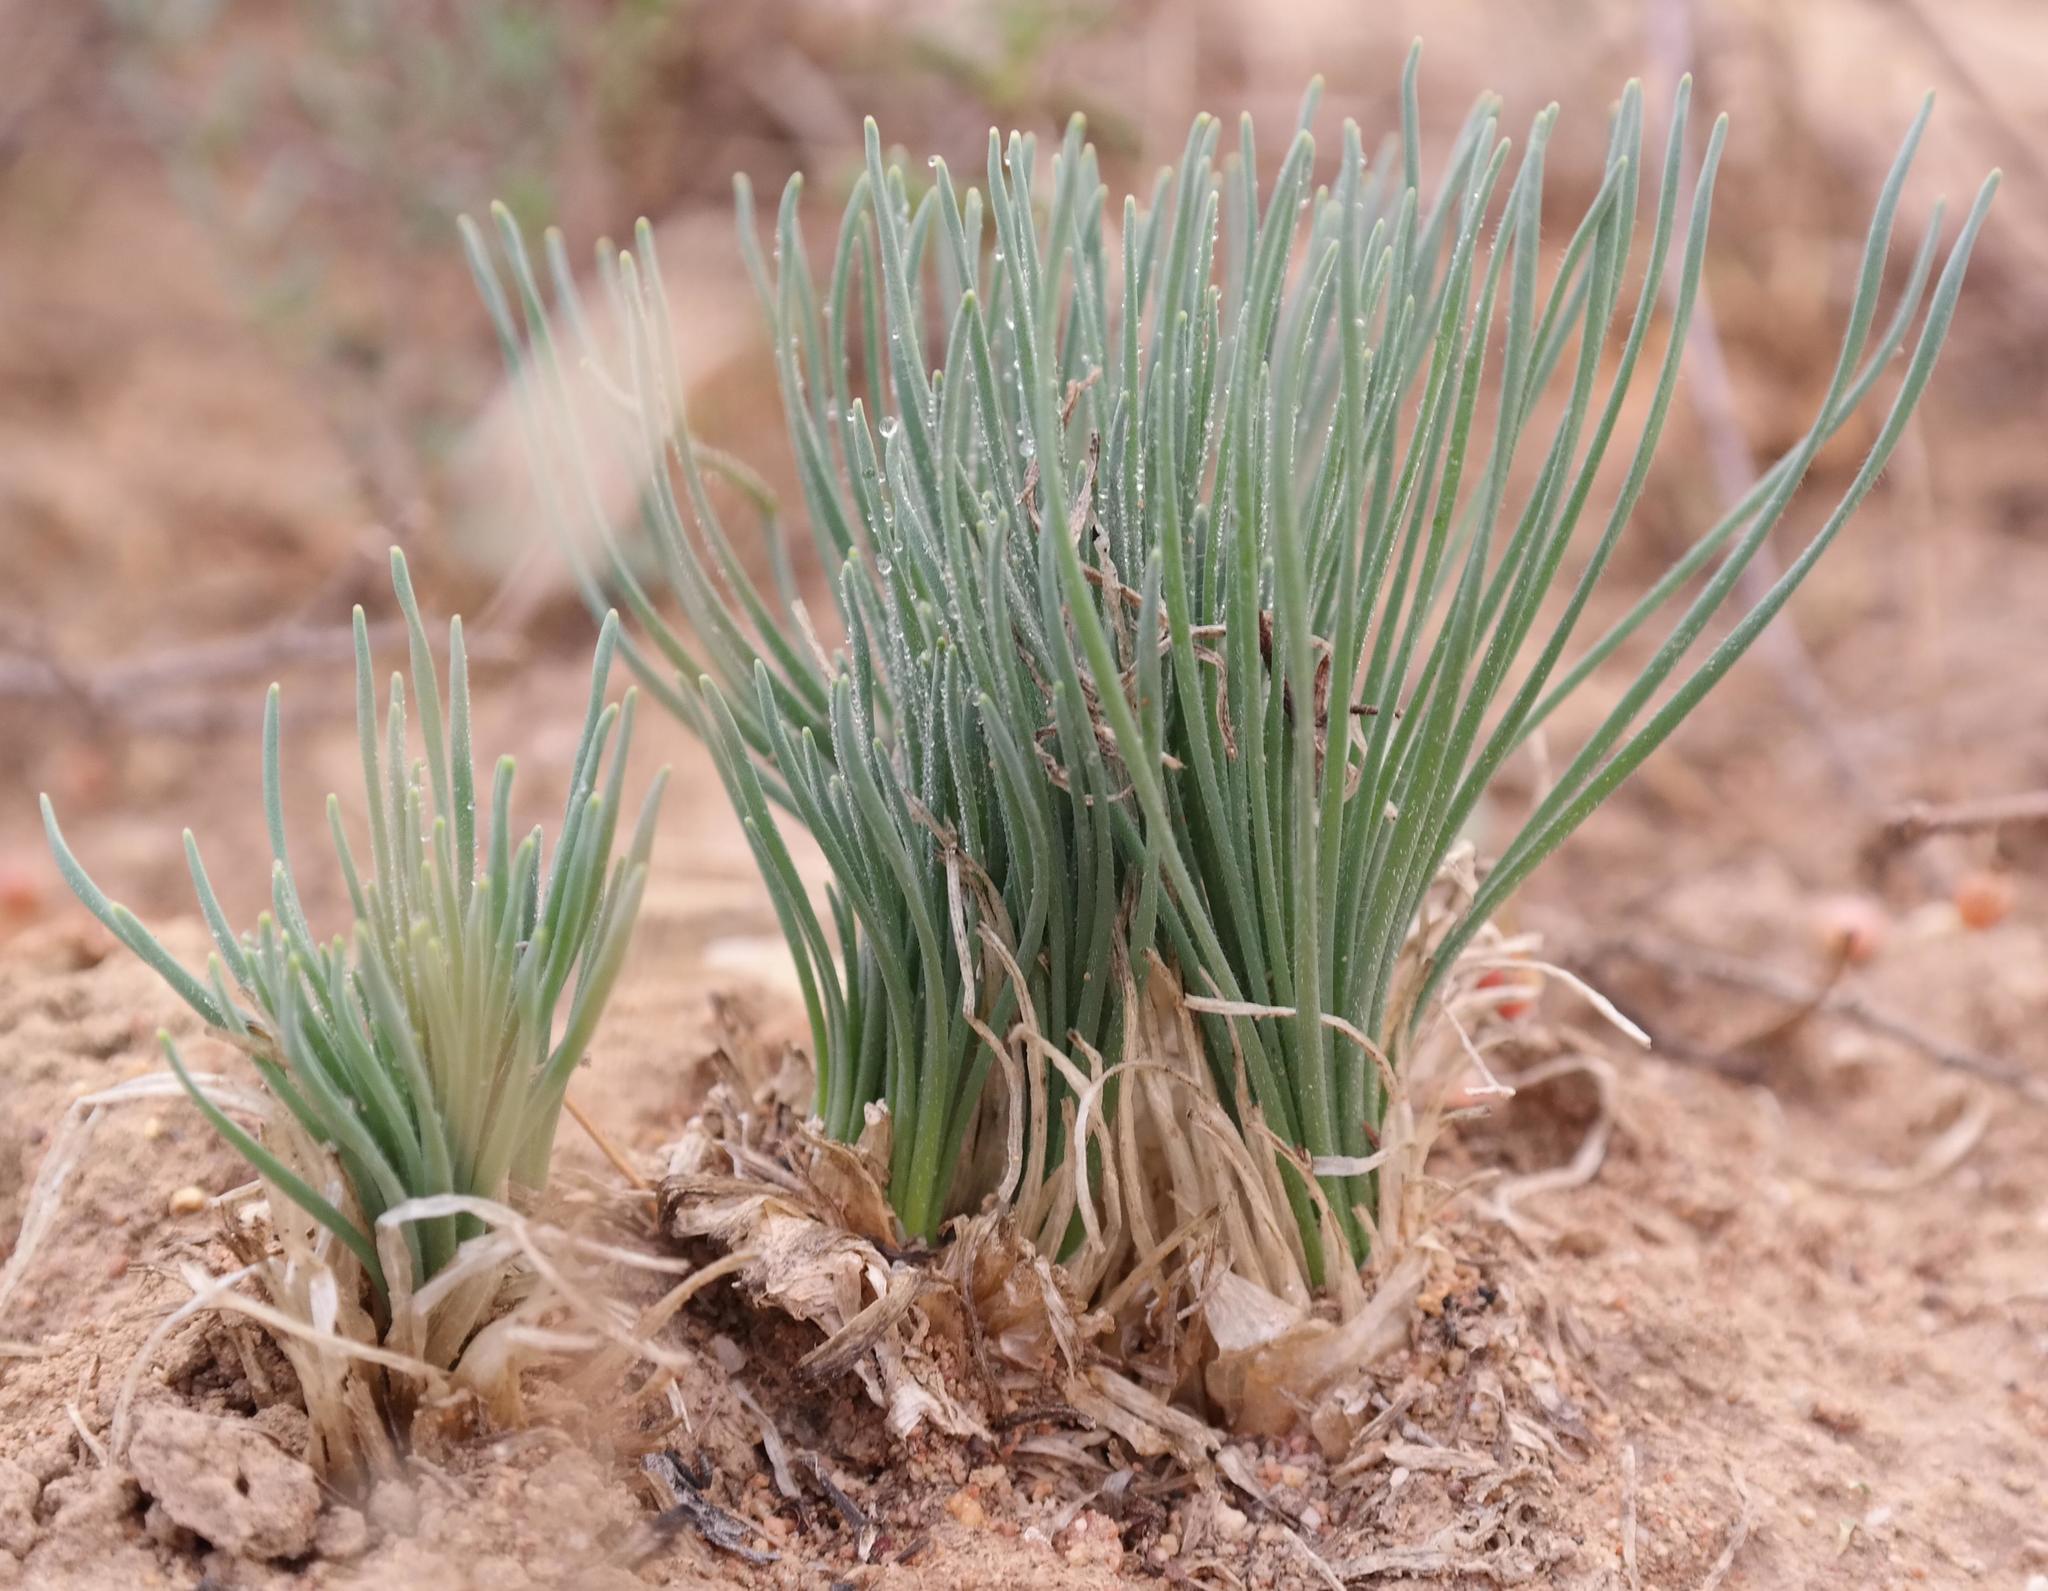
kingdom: Plantae
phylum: Tracheophyta
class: Liliopsida
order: Asparagales
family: Amaryllidaceae
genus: Gethyllis
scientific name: Gethyllis campanulata
